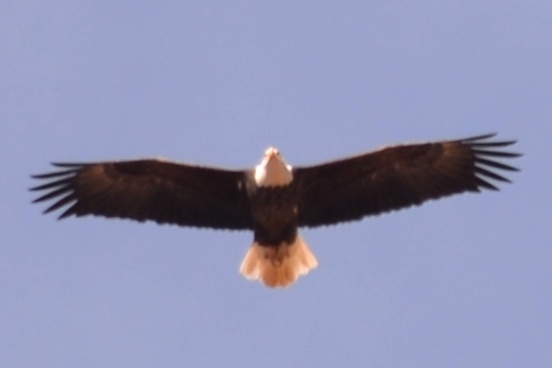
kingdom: Animalia
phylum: Chordata
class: Aves
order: Accipitriformes
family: Accipitridae
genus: Haliaeetus
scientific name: Haliaeetus leucocephalus
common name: Bald eagle
